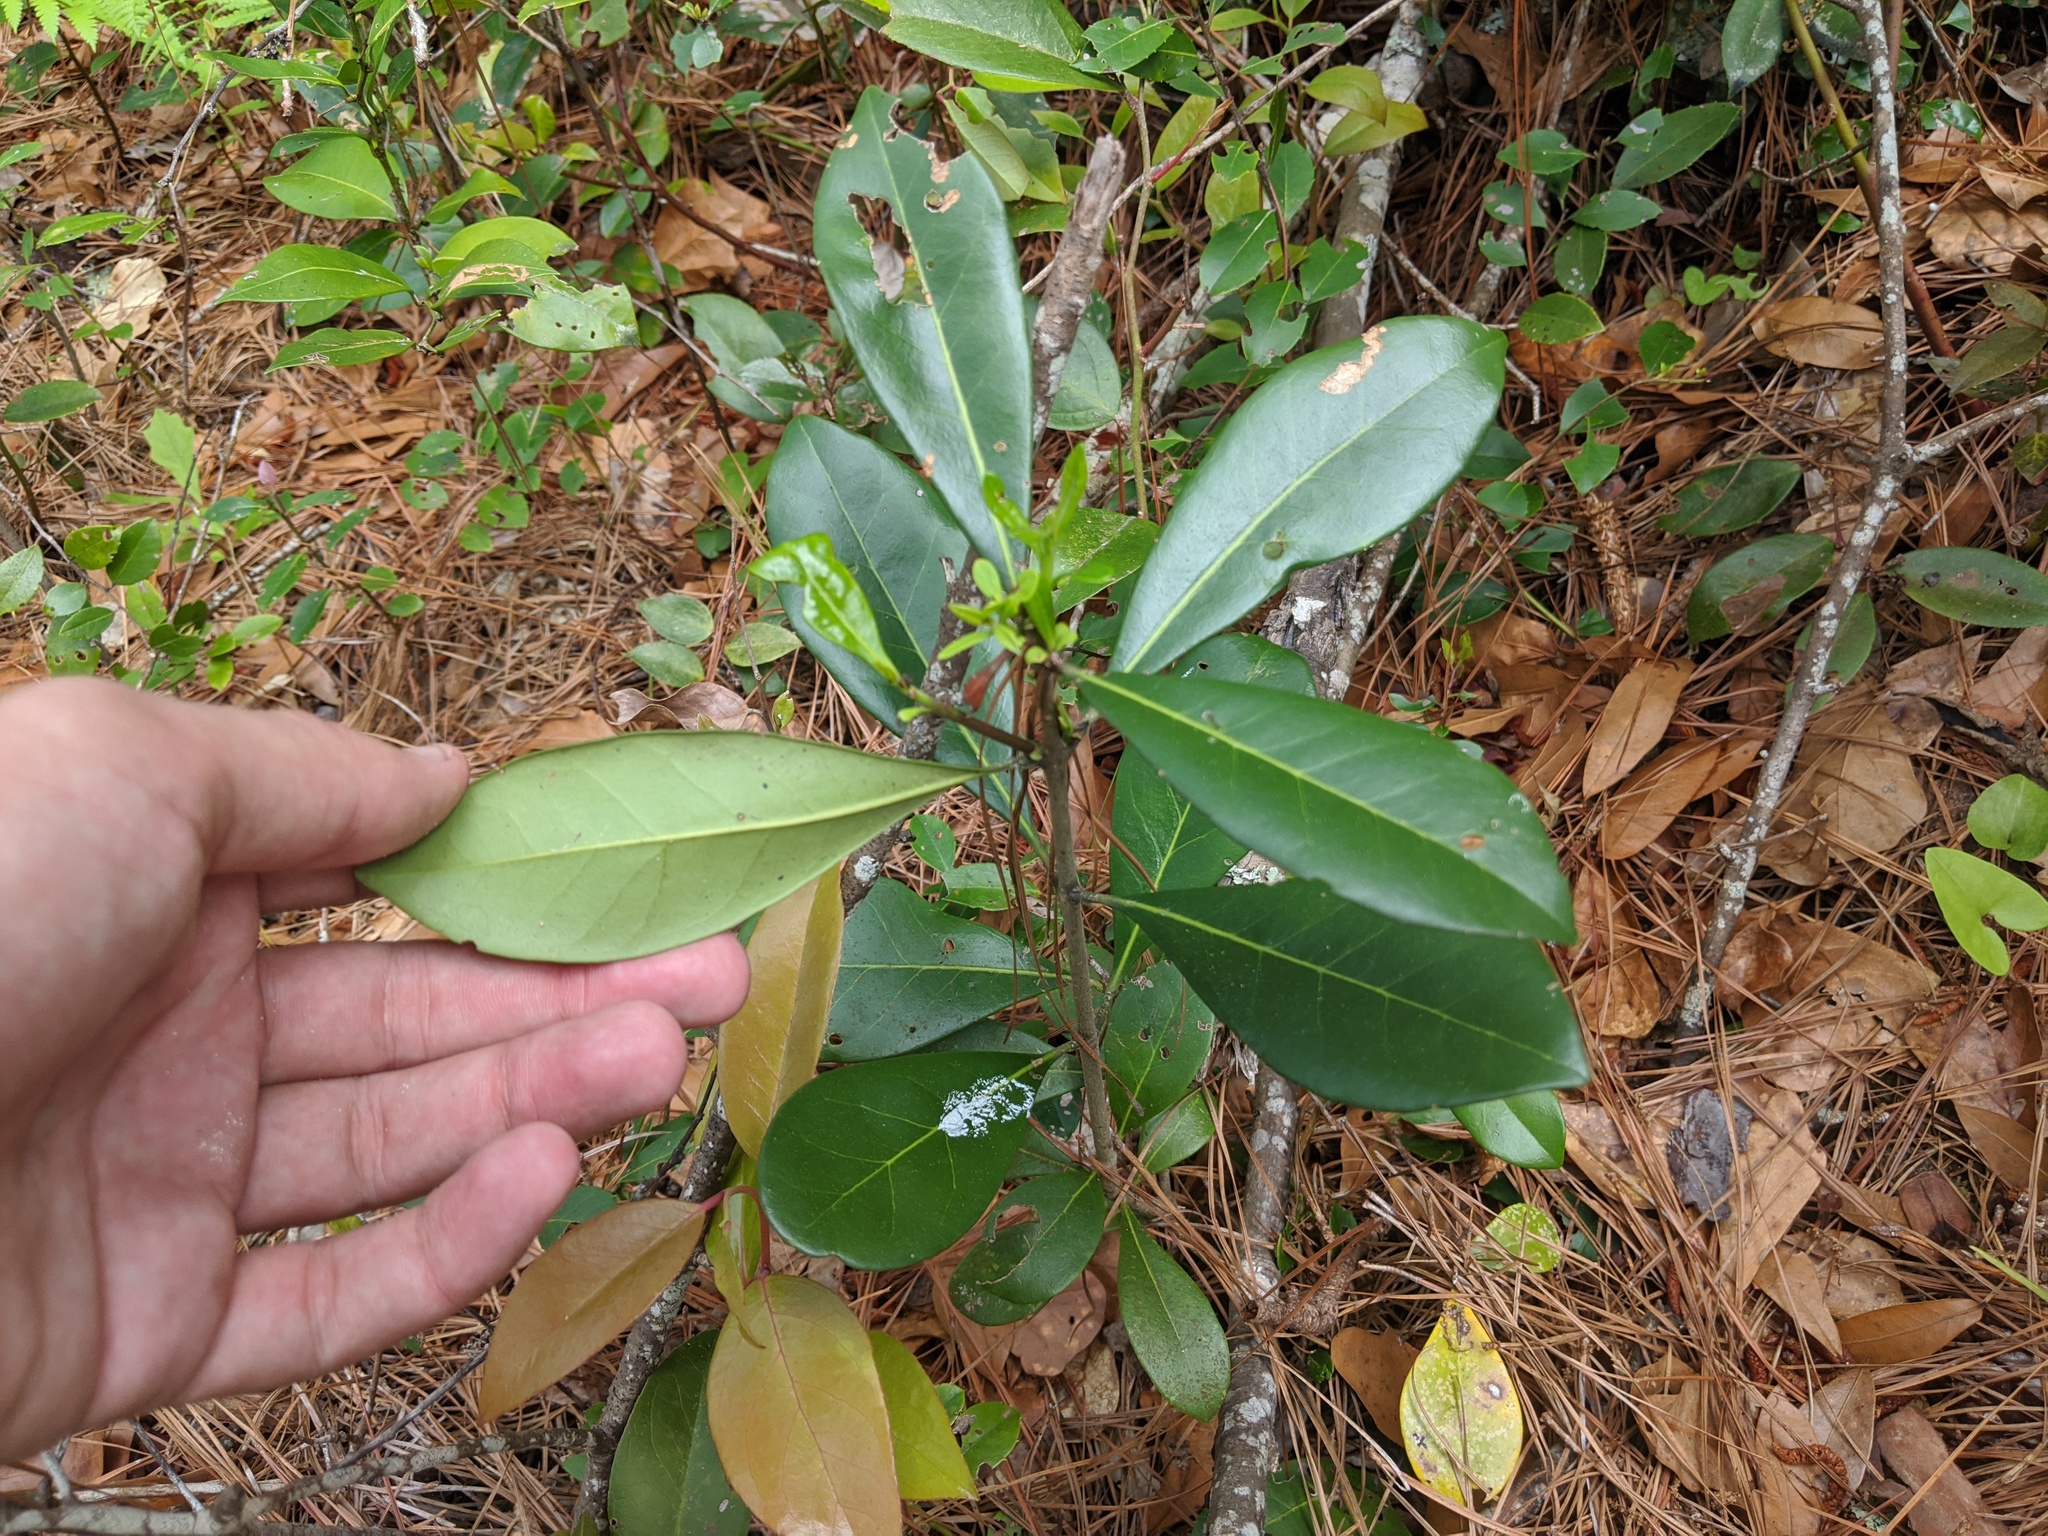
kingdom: Plantae
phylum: Tracheophyta
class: Magnoliopsida
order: Lamiales
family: Oleaceae
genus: Cartrema
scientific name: Cartrema americana
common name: Devilwood
